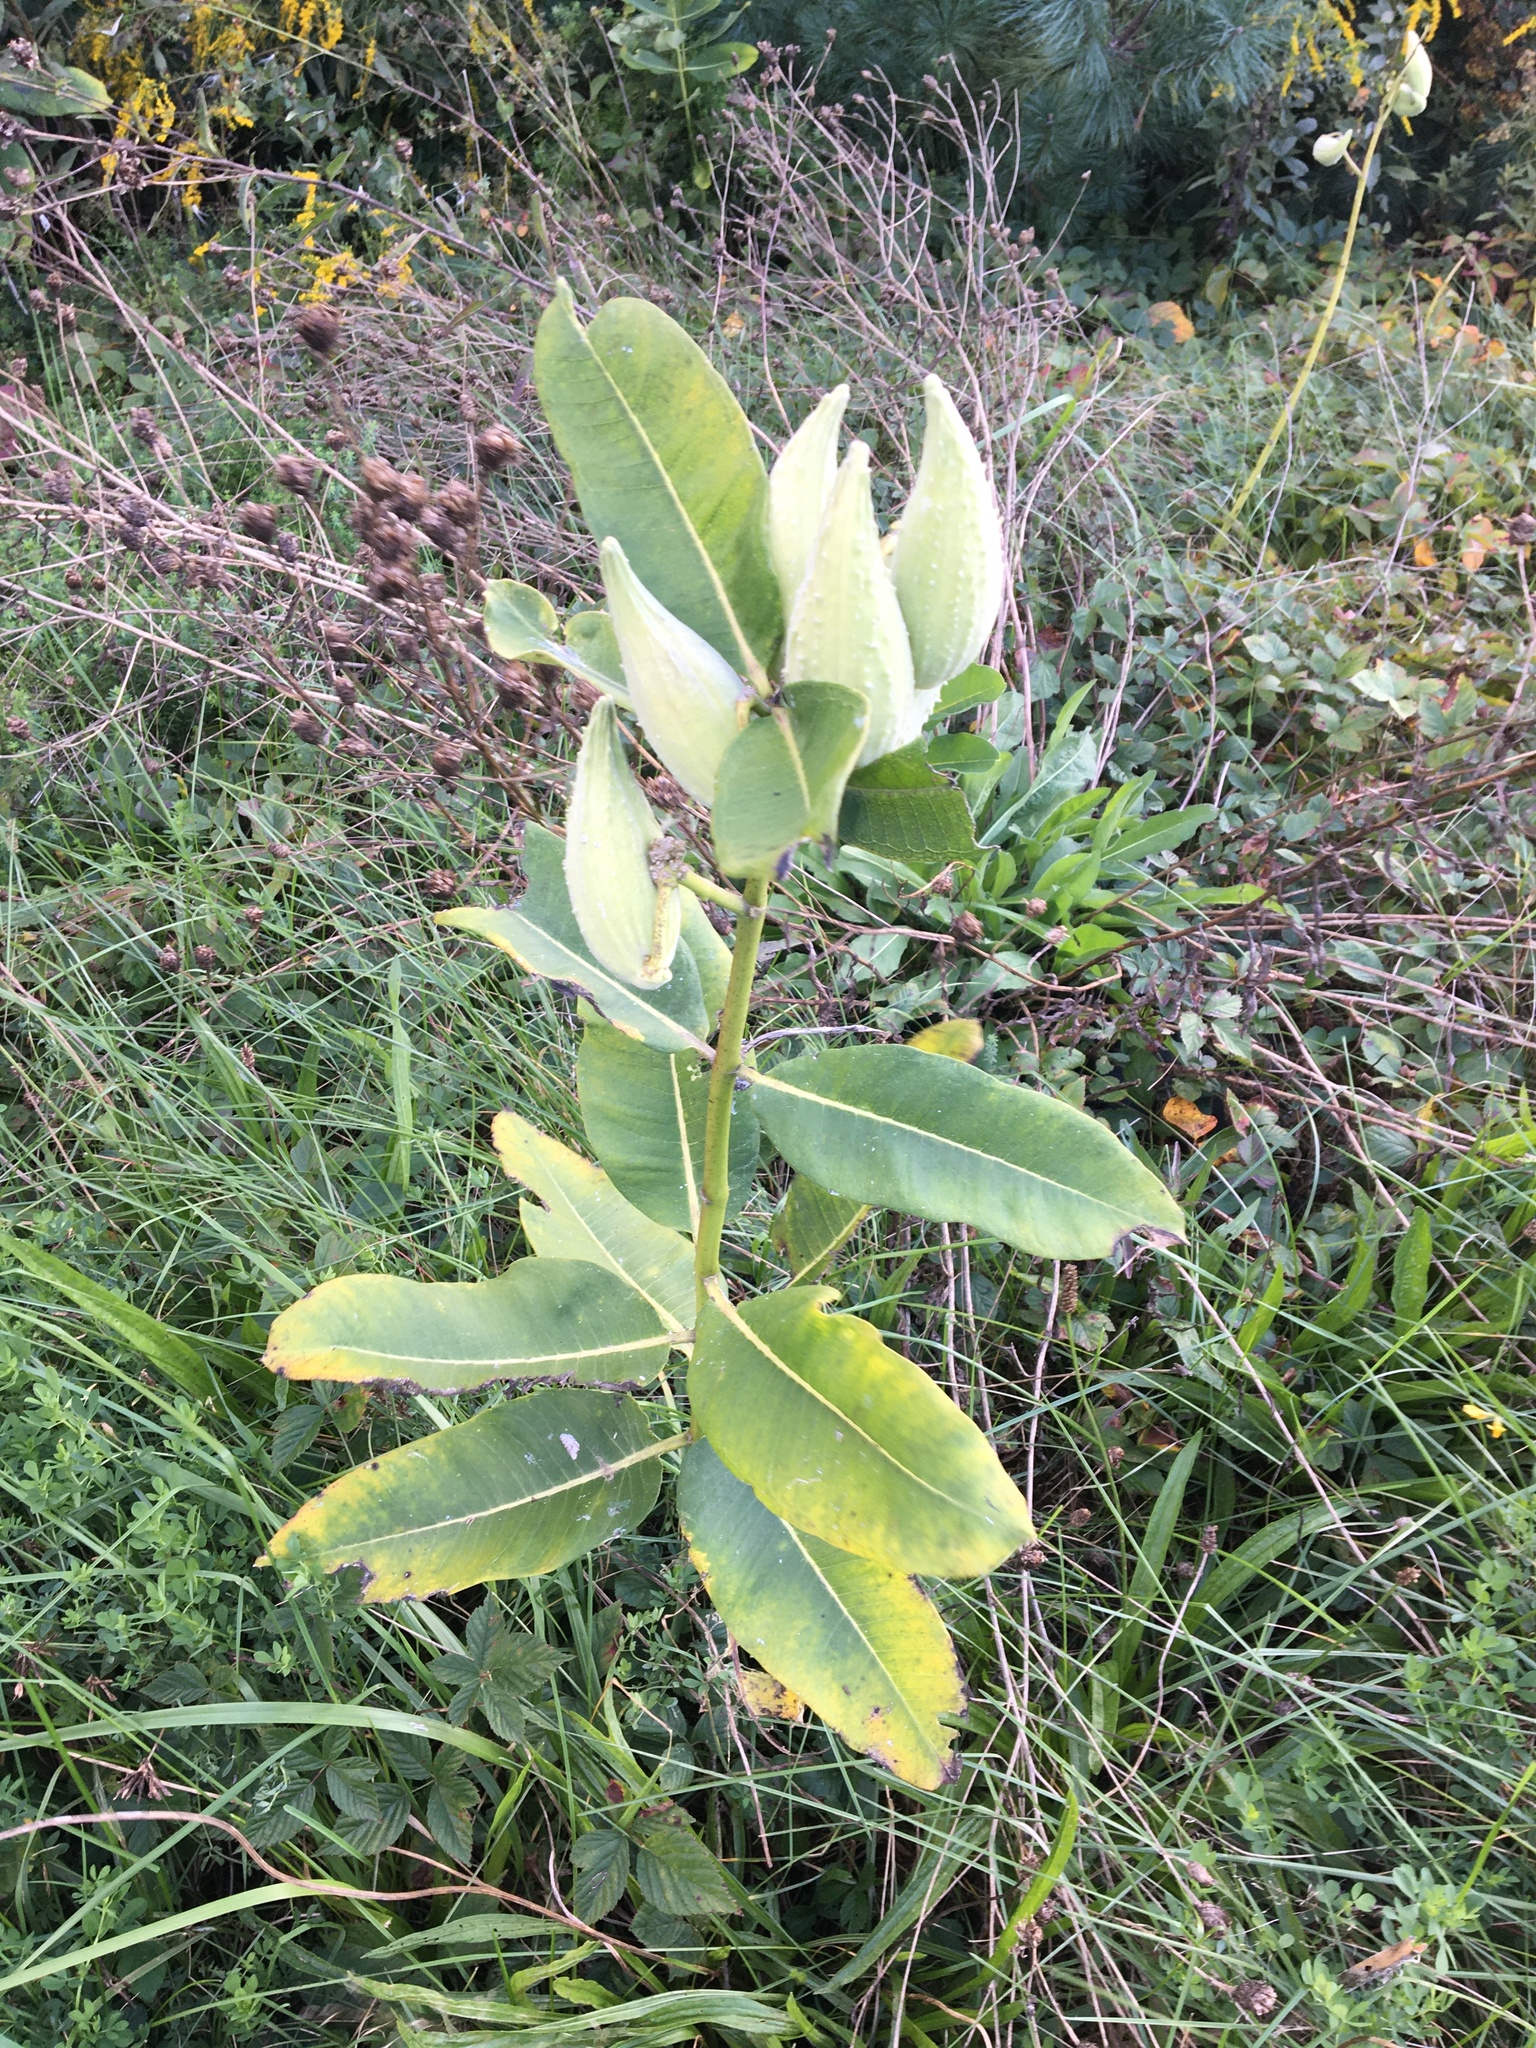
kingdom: Plantae
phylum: Tracheophyta
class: Magnoliopsida
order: Gentianales
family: Apocynaceae
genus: Asclepias
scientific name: Asclepias syriaca
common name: Common milkweed
